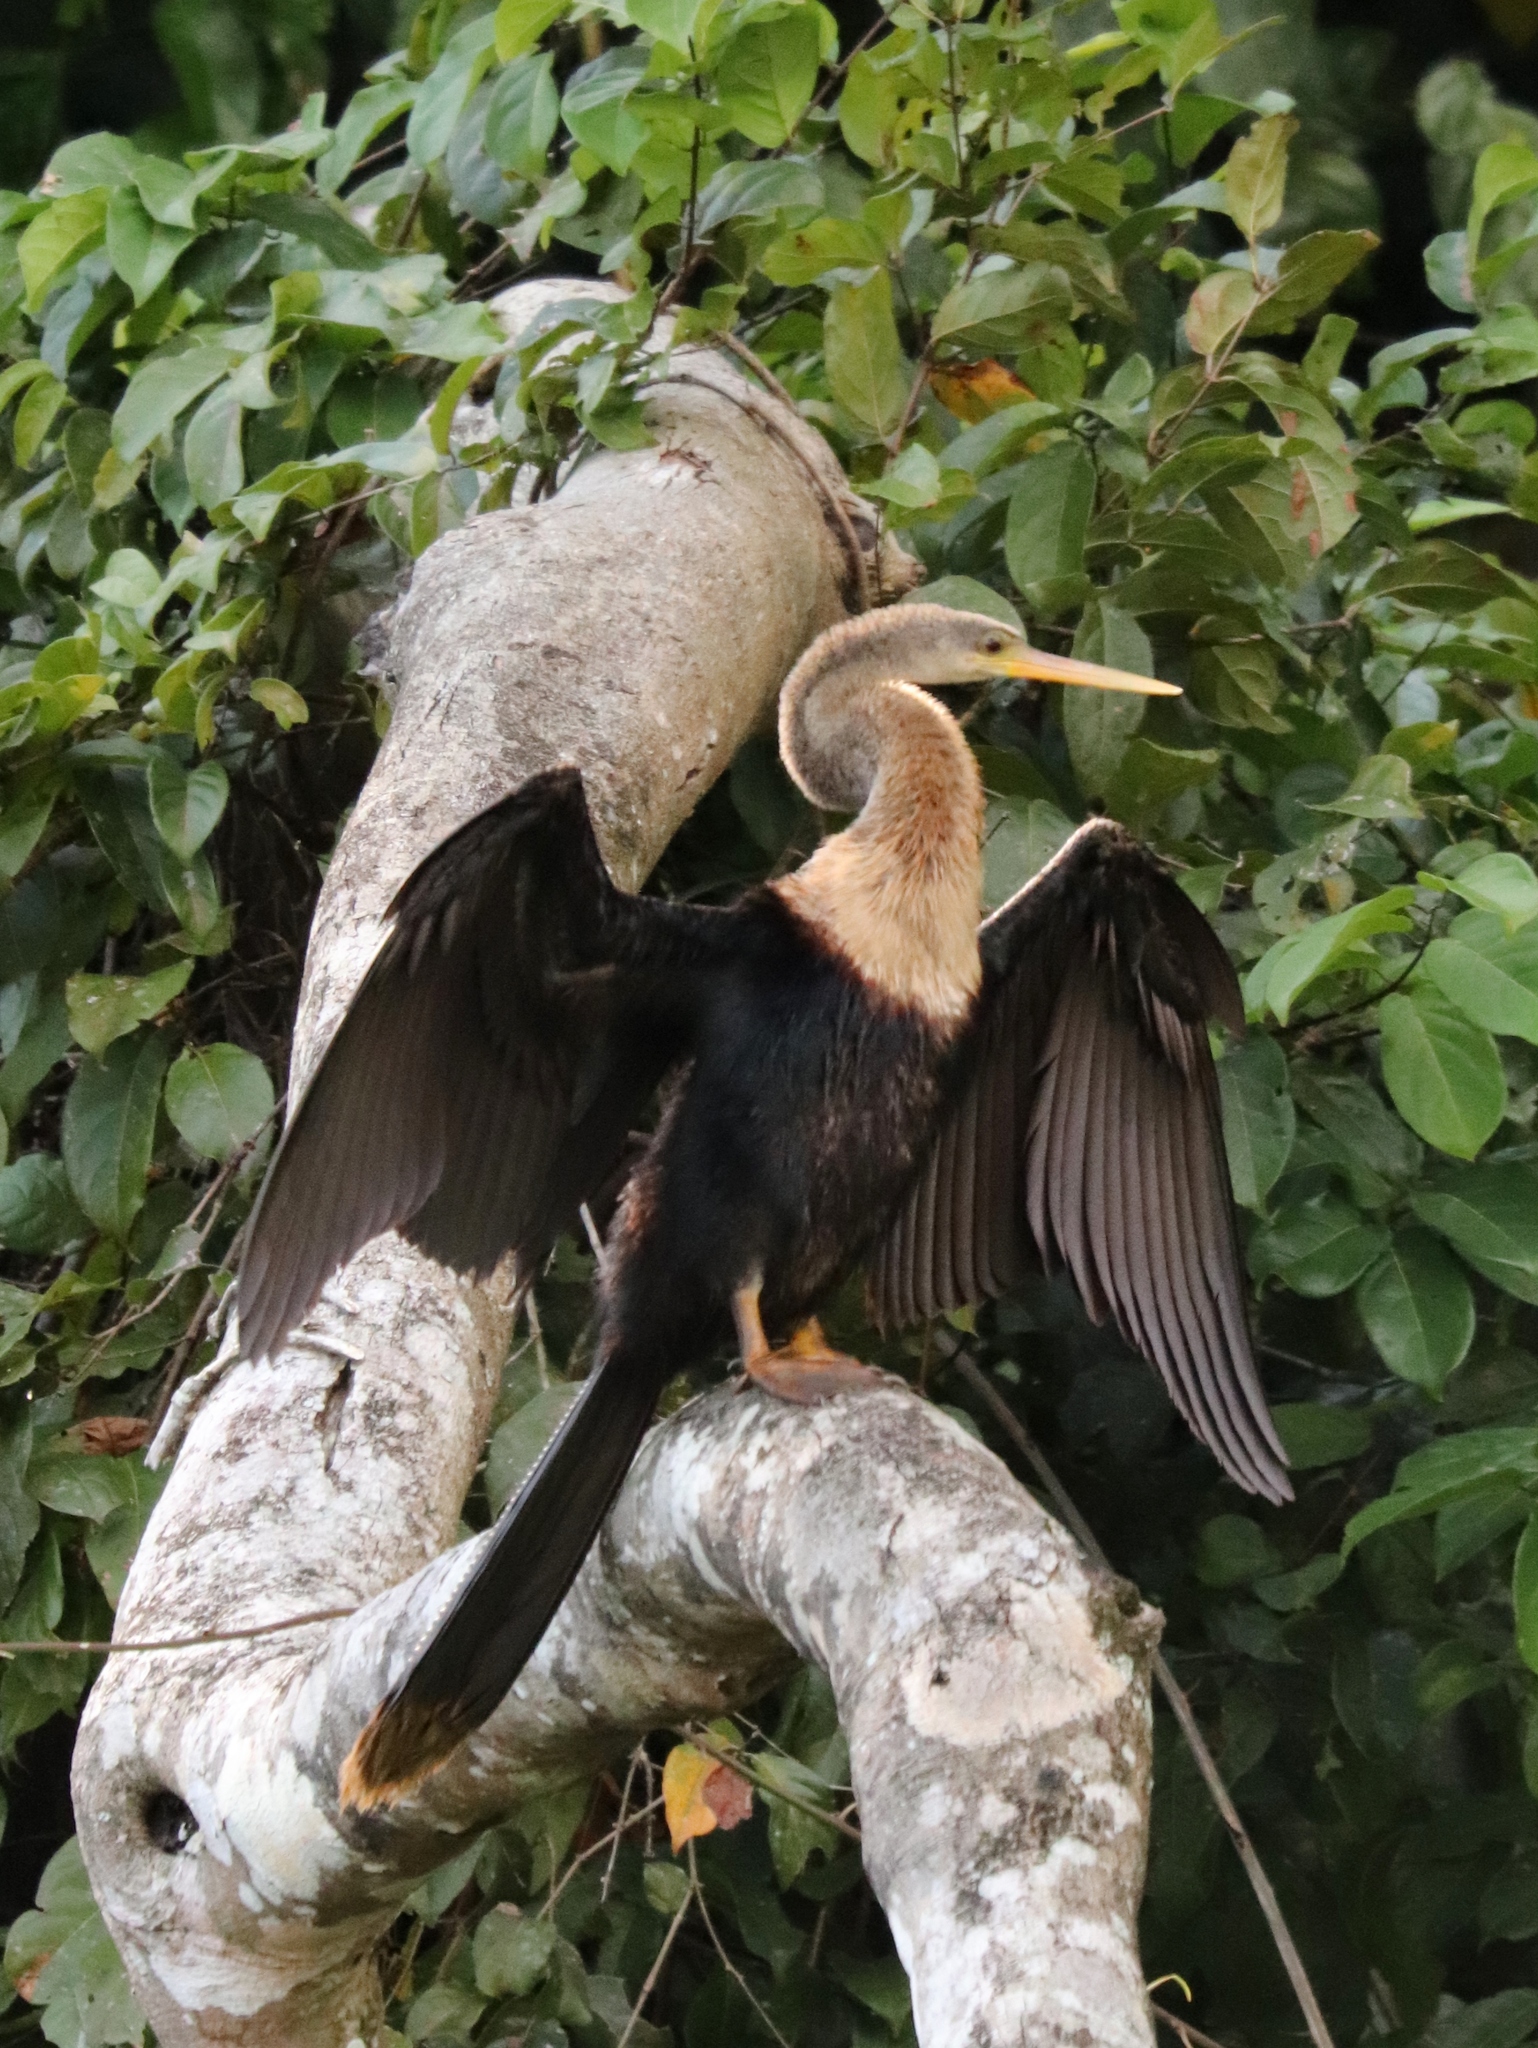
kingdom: Animalia
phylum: Chordata
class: Aves
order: Suliformes
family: Anhingidae
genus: Anhinga
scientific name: Anhinga anhinga
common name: Anhinga
